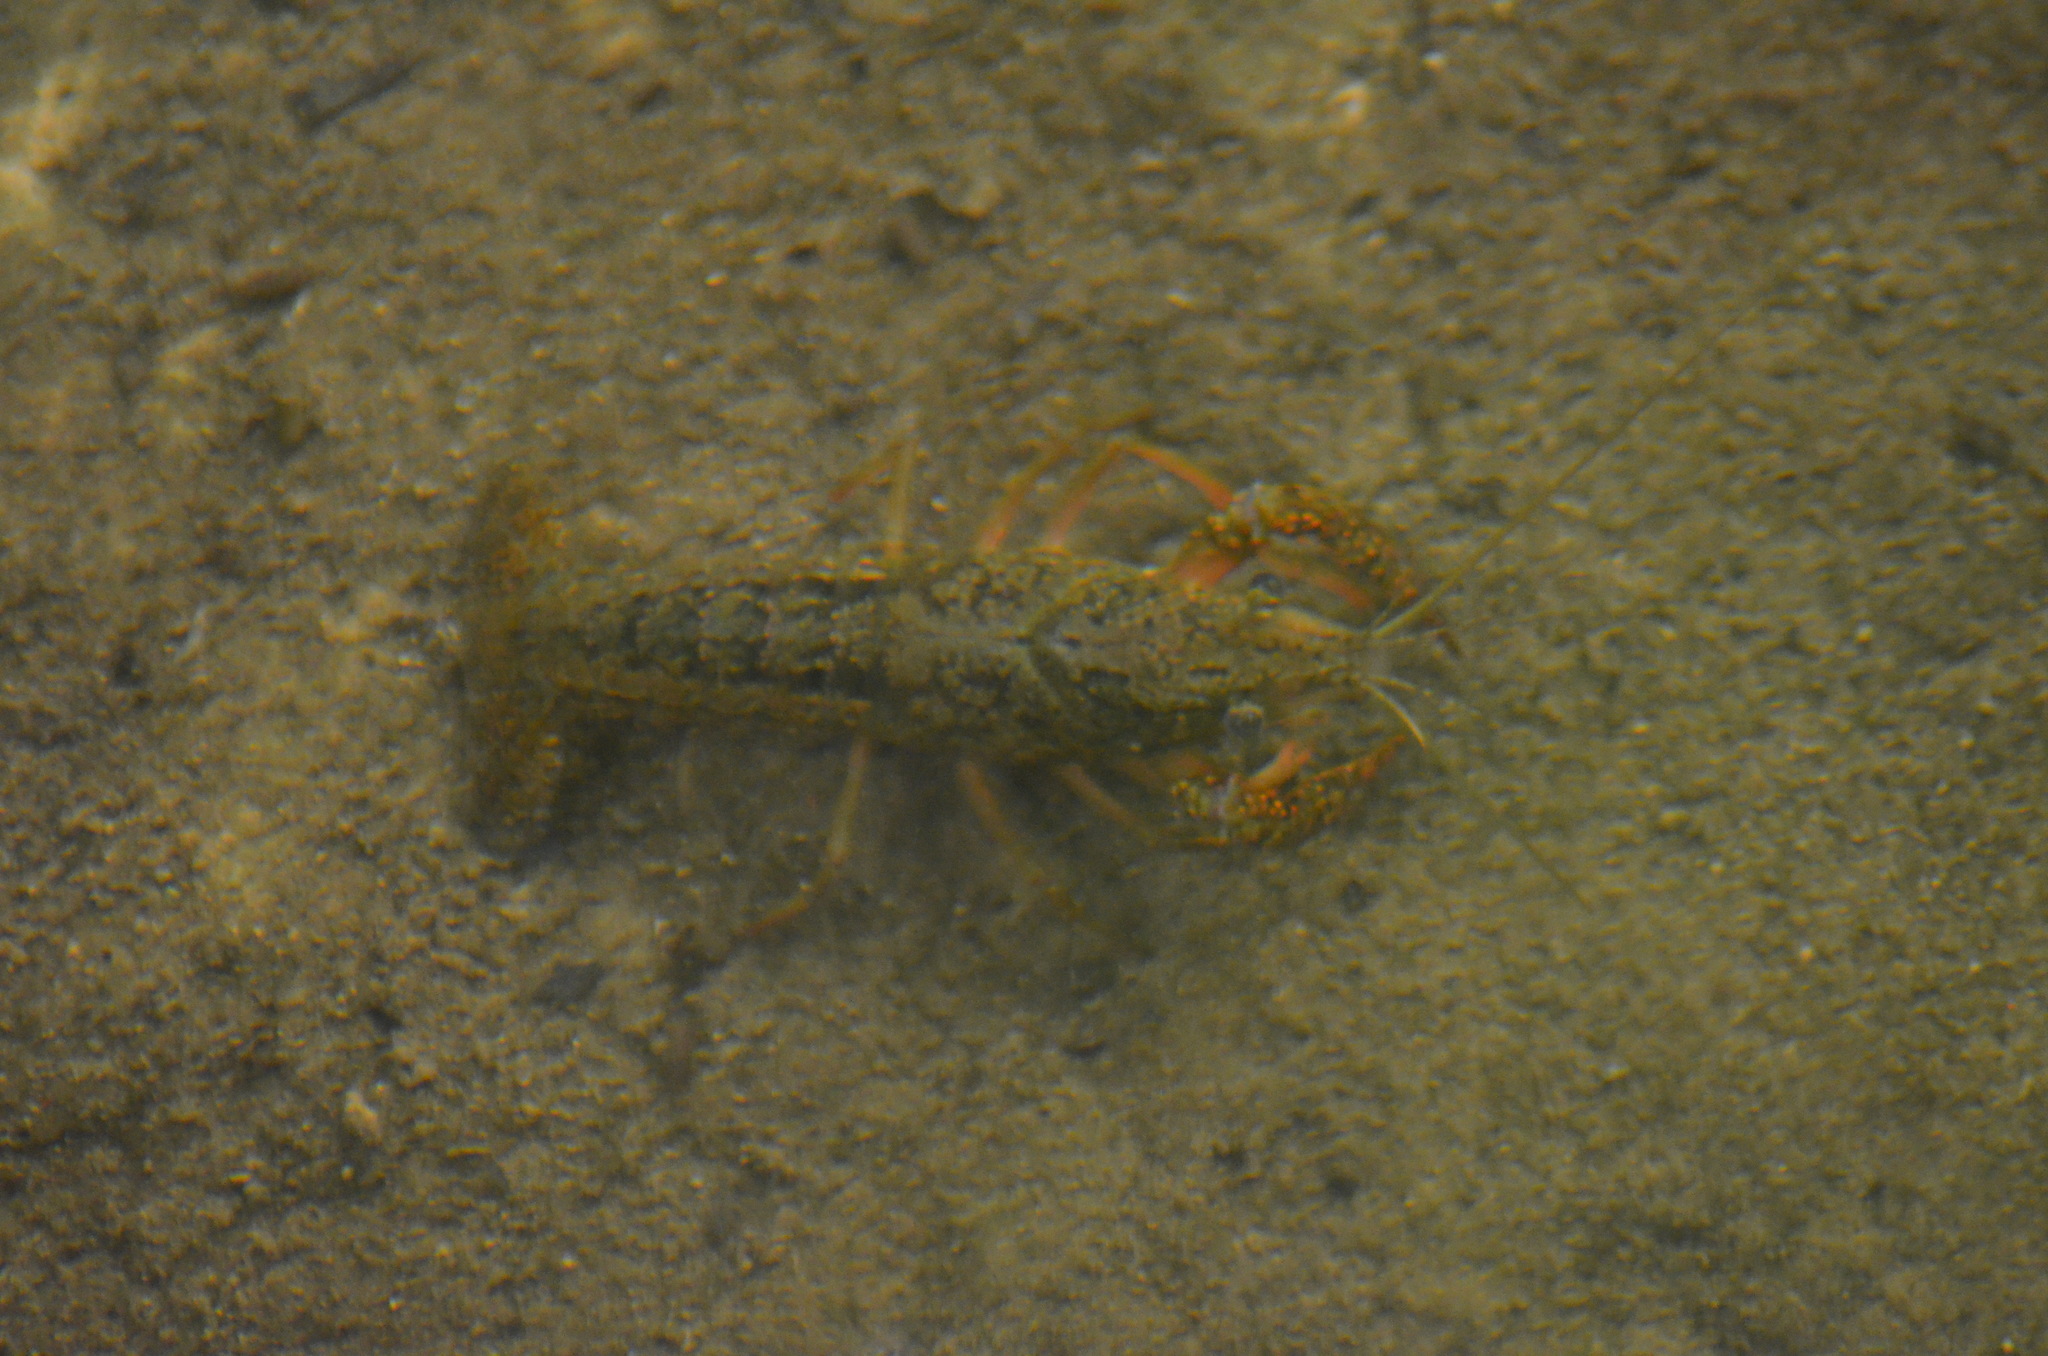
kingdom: Animalia
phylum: Arthropoda
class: Malacostraca
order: Decapoda
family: Cambaridae
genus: Procambarus
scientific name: Procambarus clarkii
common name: Red swamp crayfish
